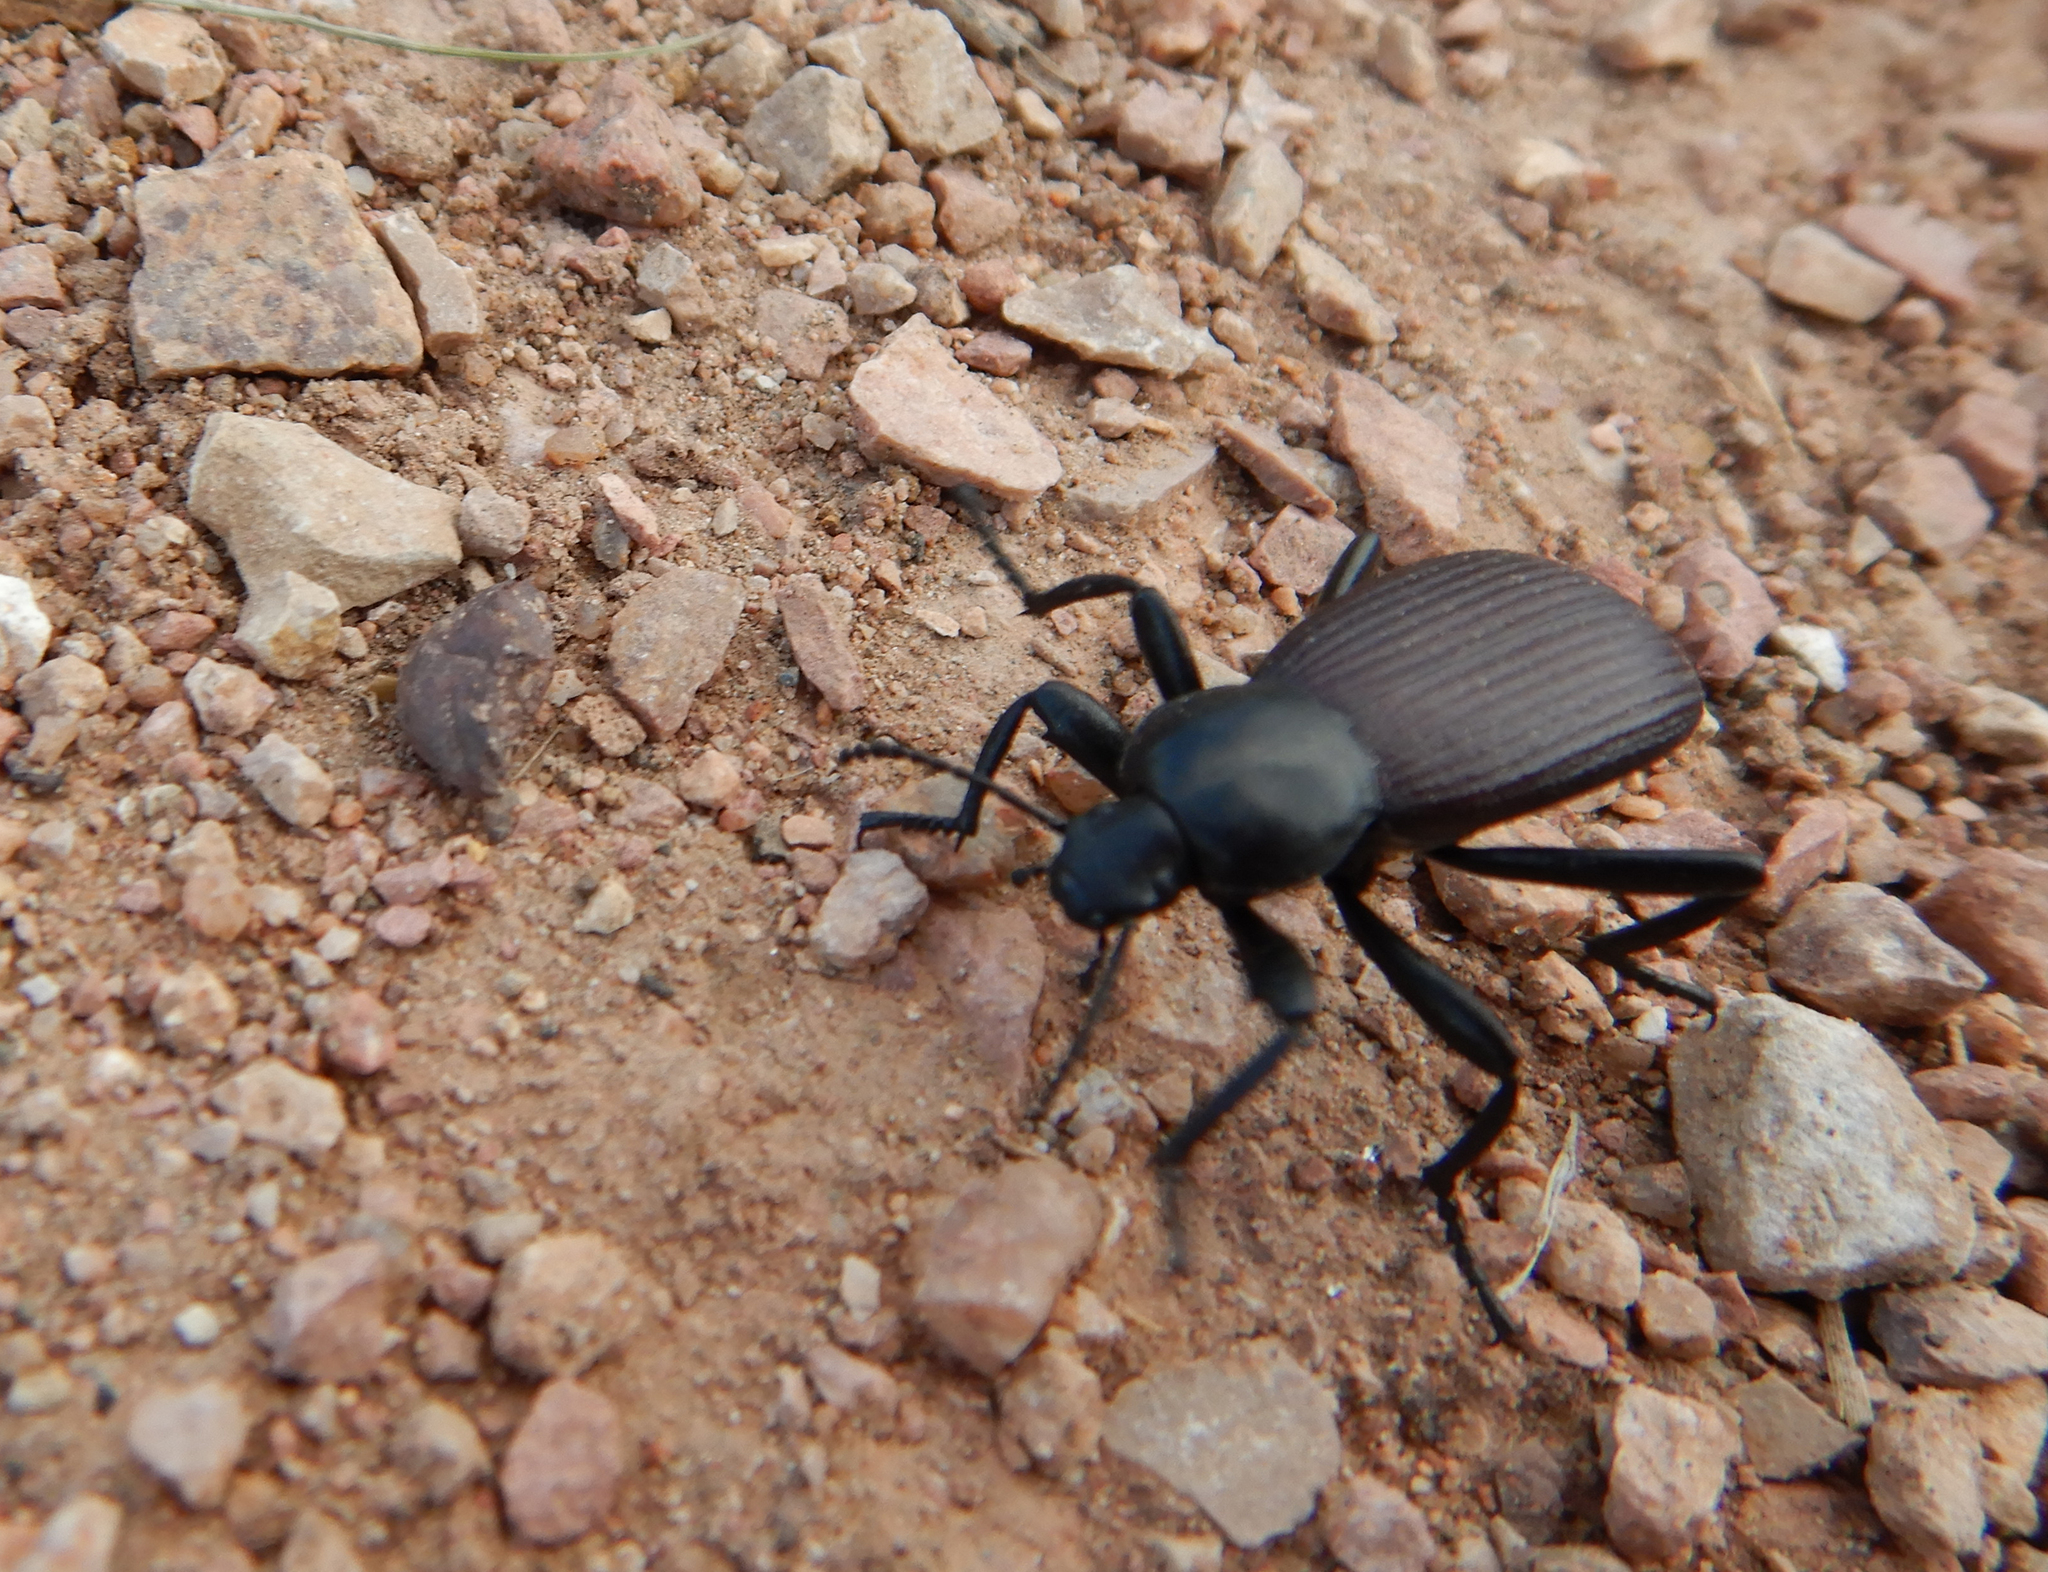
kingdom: Animalia
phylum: Arthropoda
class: Insecta
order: Coleoptera
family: Tenebrionidae
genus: Eleodes
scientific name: Eleodes obscura
